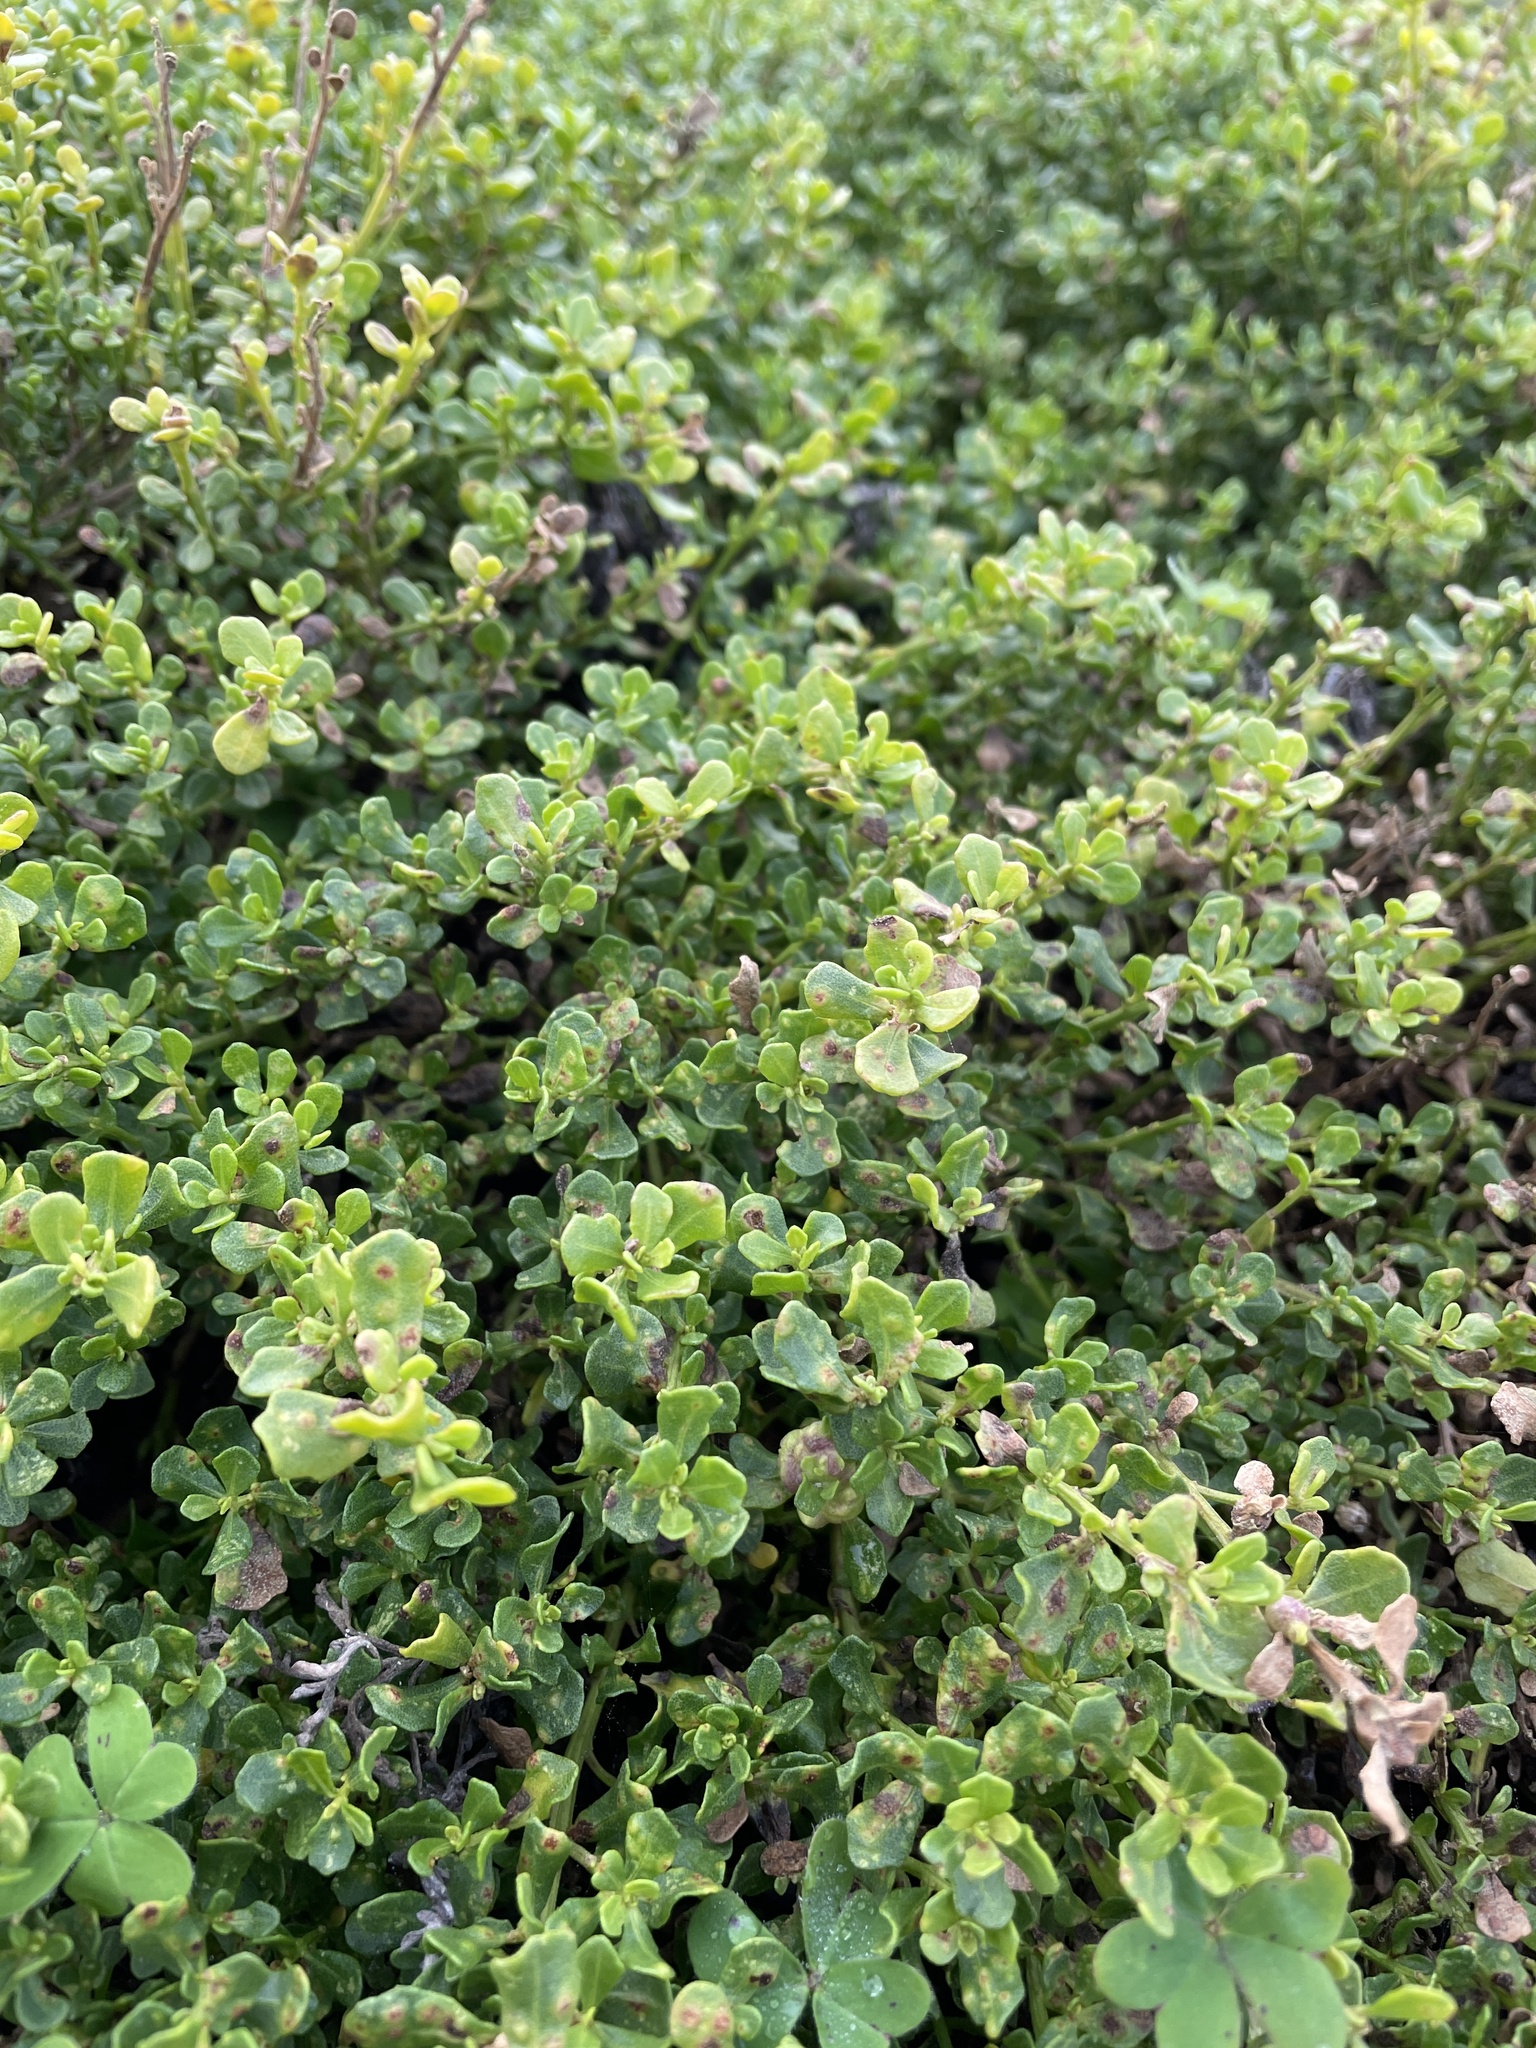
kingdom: Plantae
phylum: Tracheophyta
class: Magnoliopsida
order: Asterales
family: Asteraceae
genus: Baccharis
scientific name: Baccharis pilularis
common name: Coyotebrush
